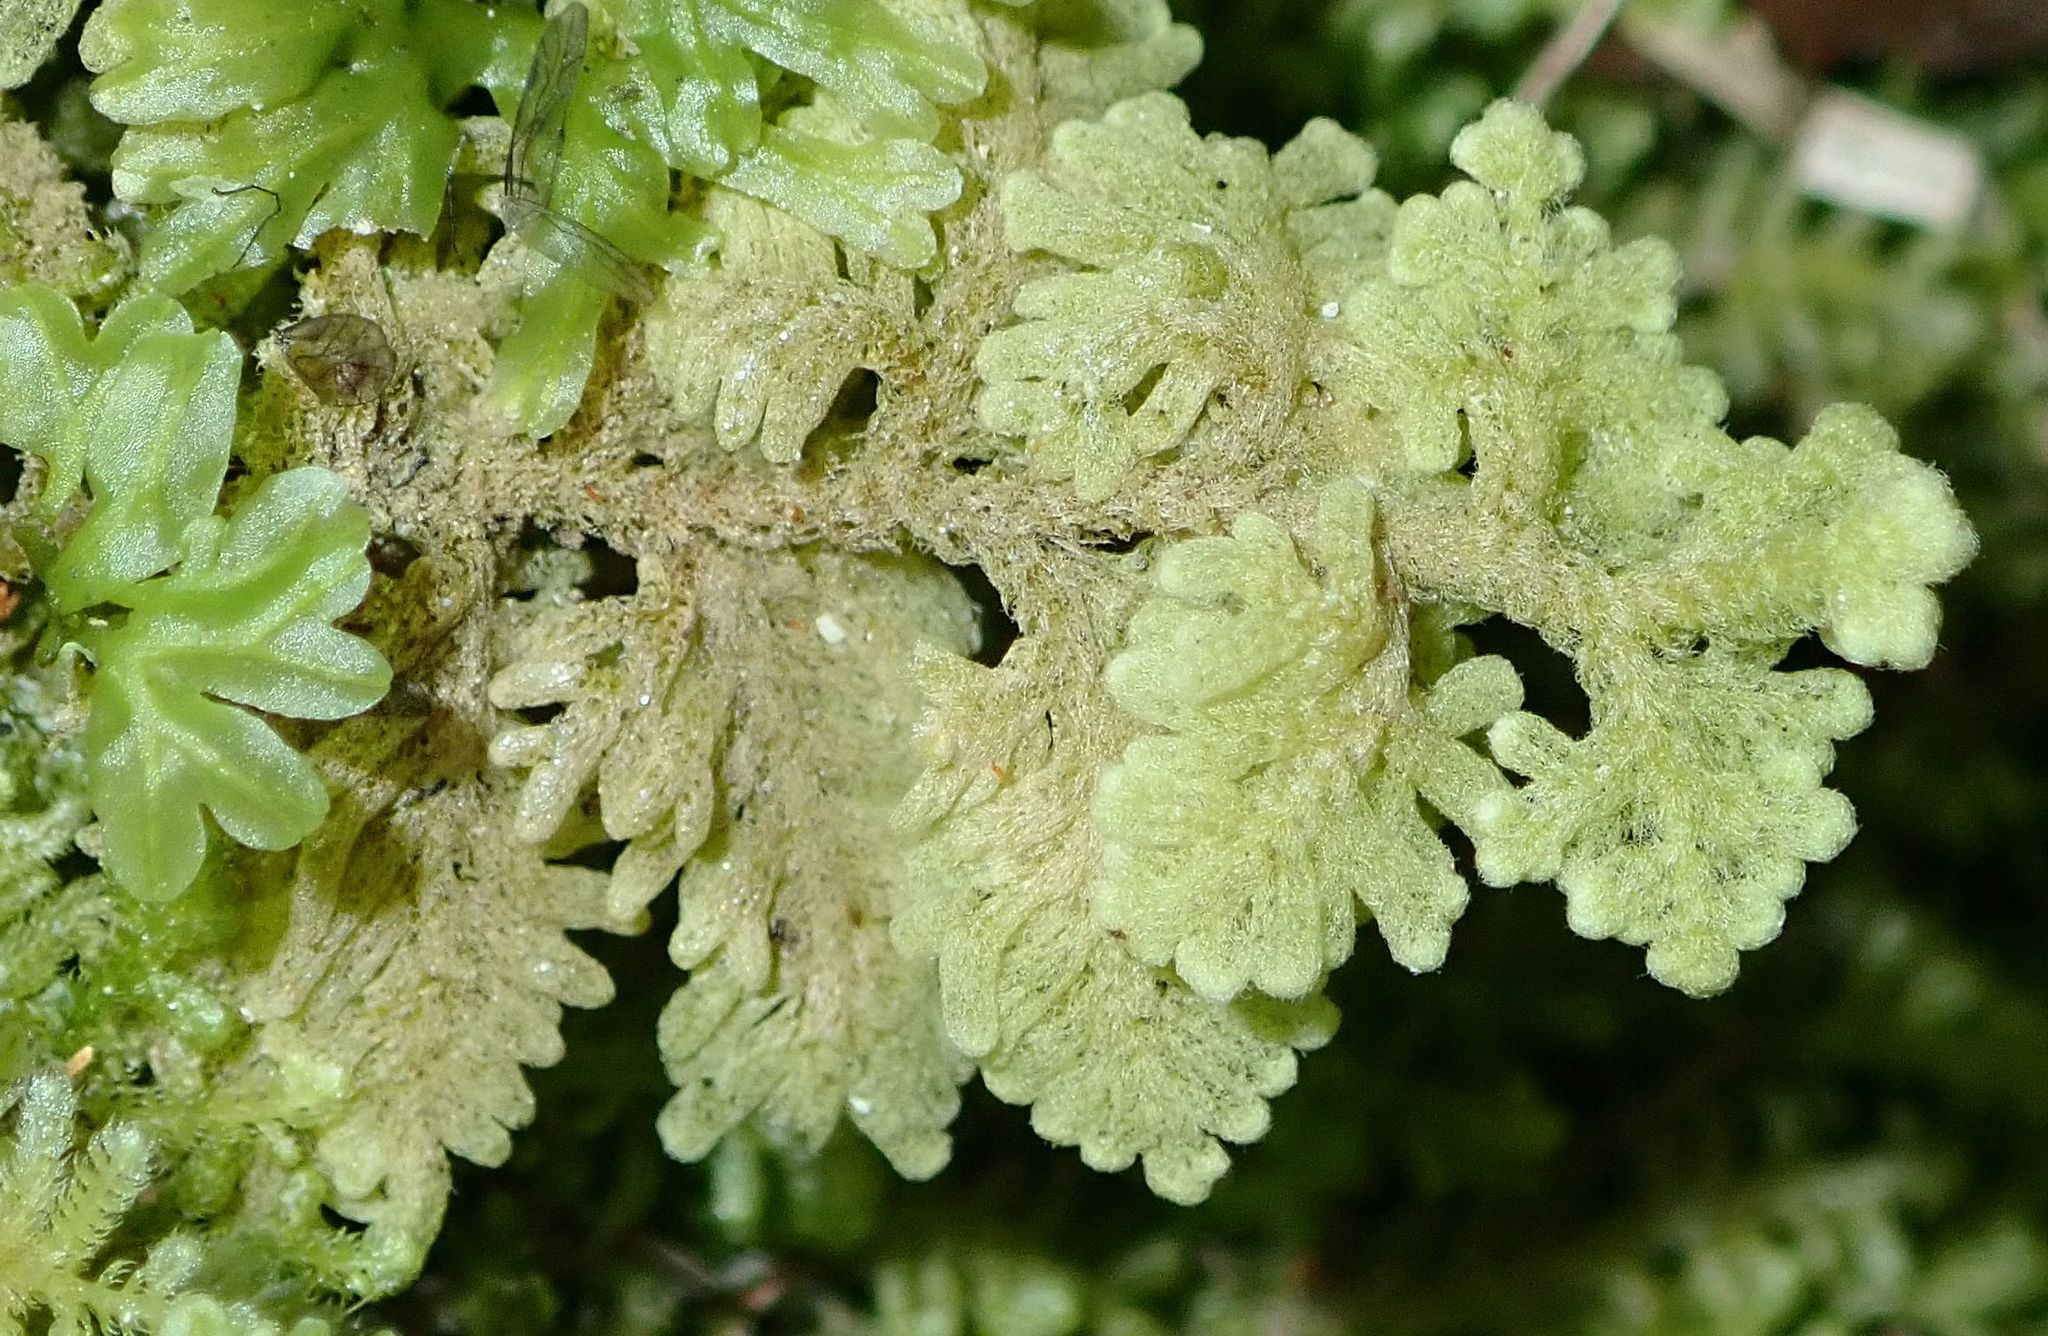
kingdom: Plantae
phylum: Marchantiophyta
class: Jungermanniopsida
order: Jungermanniales
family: Trichocoleaceae
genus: Trichocolea
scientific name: Trichocolea mollissima
